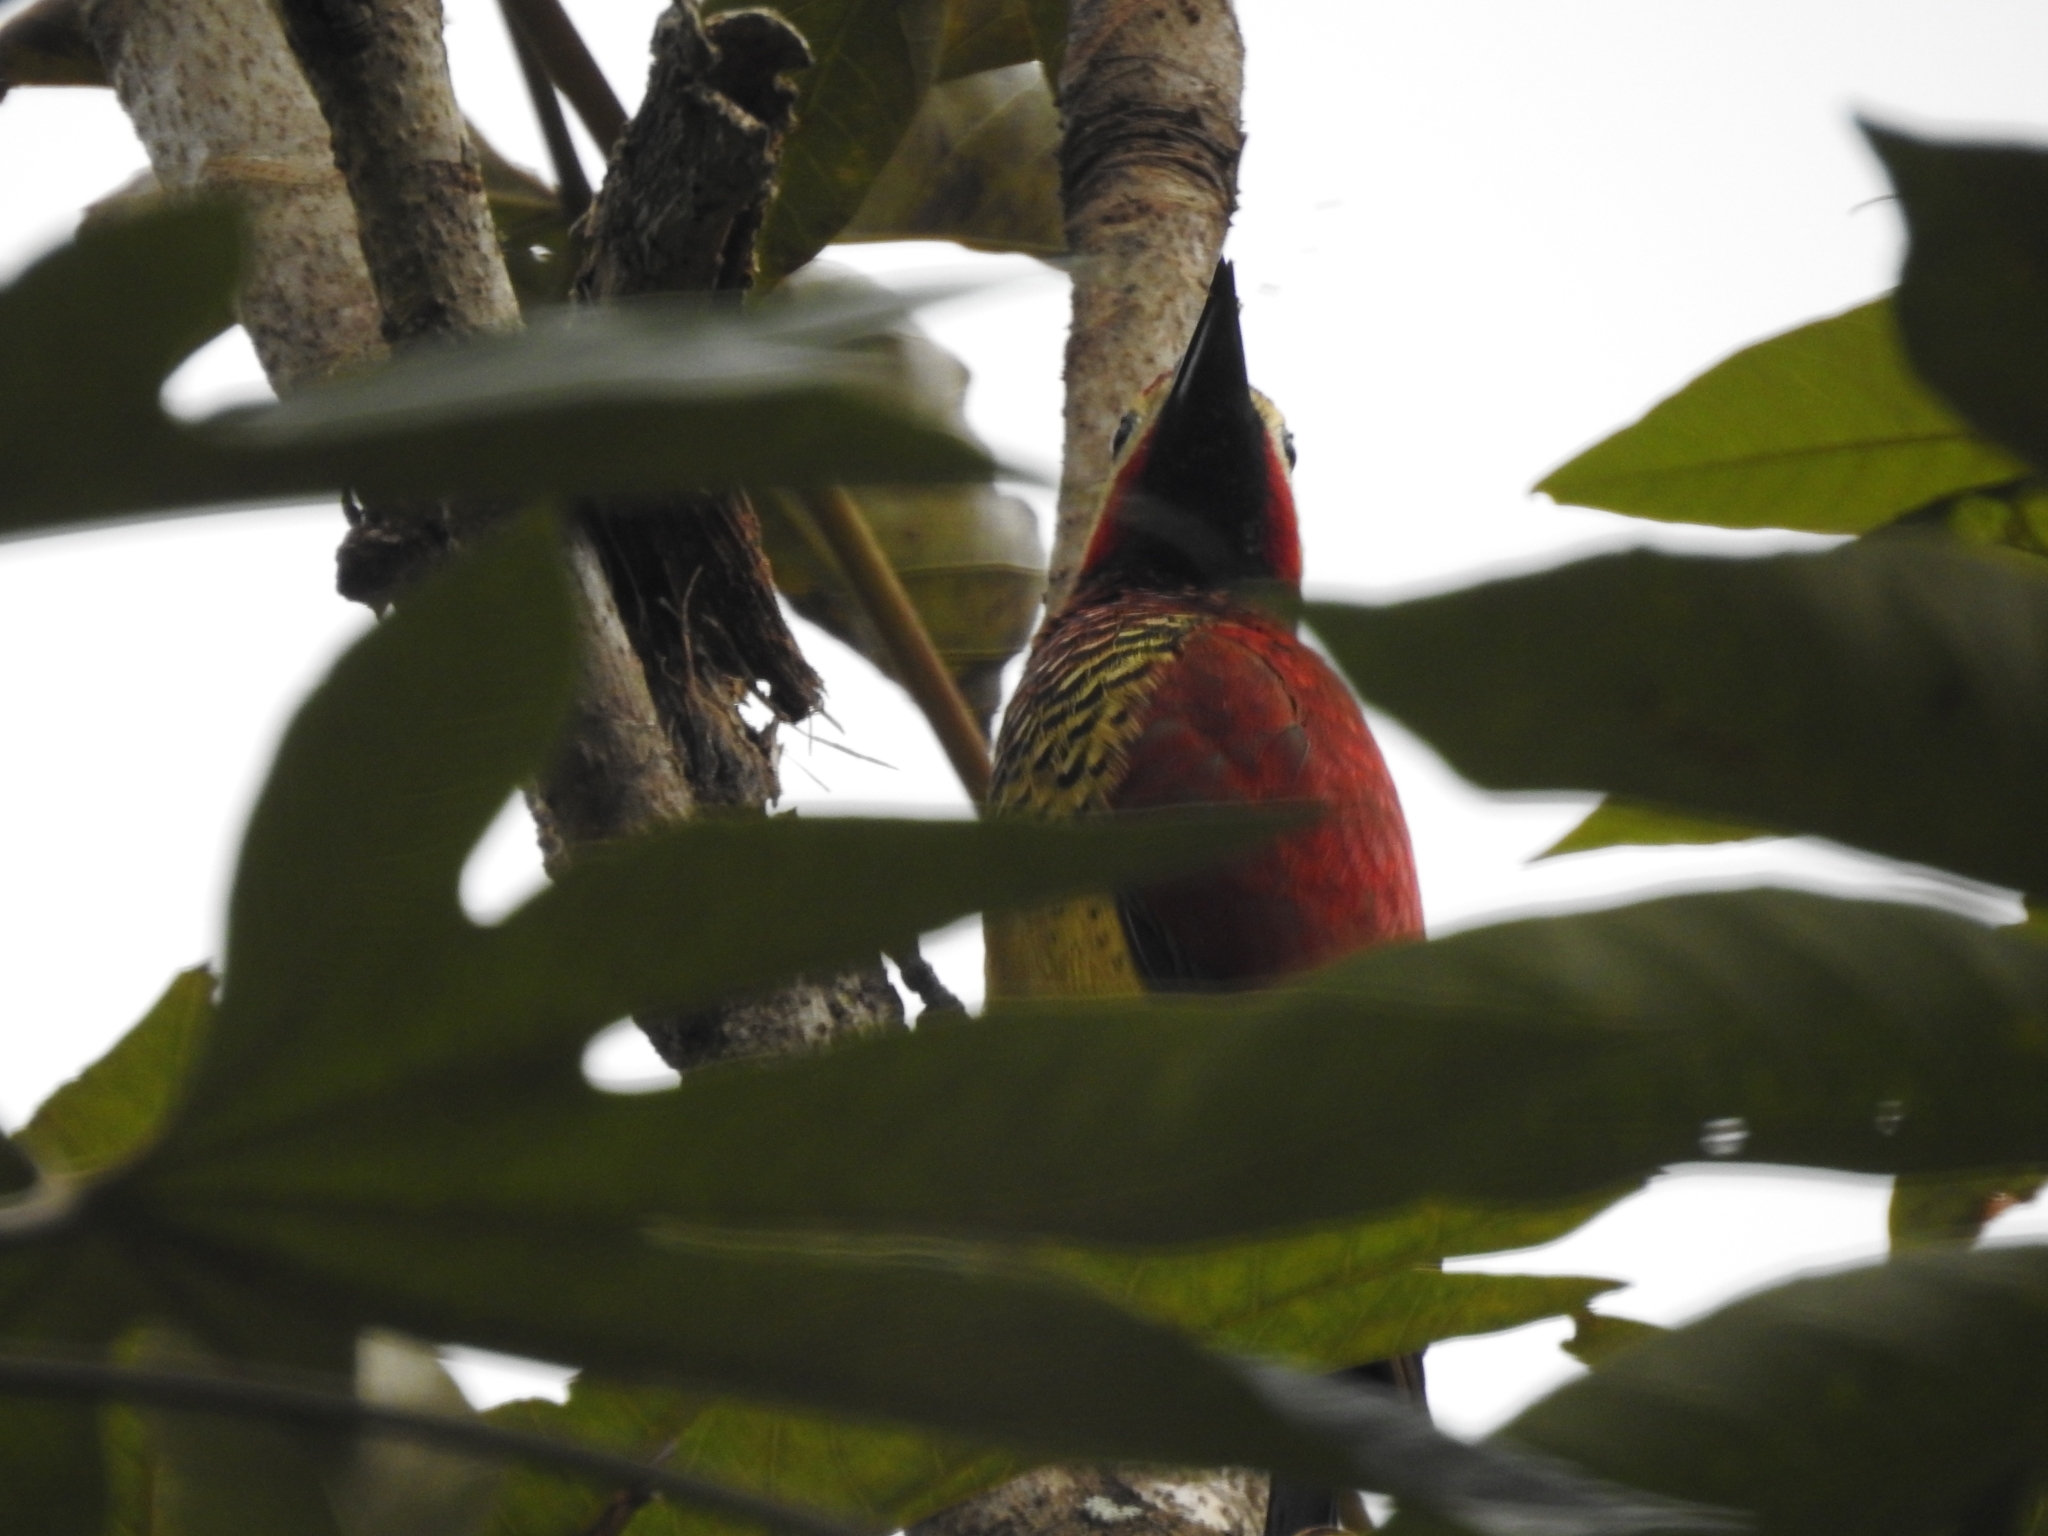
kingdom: Animalia
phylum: Chordata
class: Aves
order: Piciformes
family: Picidae
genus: Colaptes
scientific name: Colaptes rivolii
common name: Crimson-mantled woodpecker
